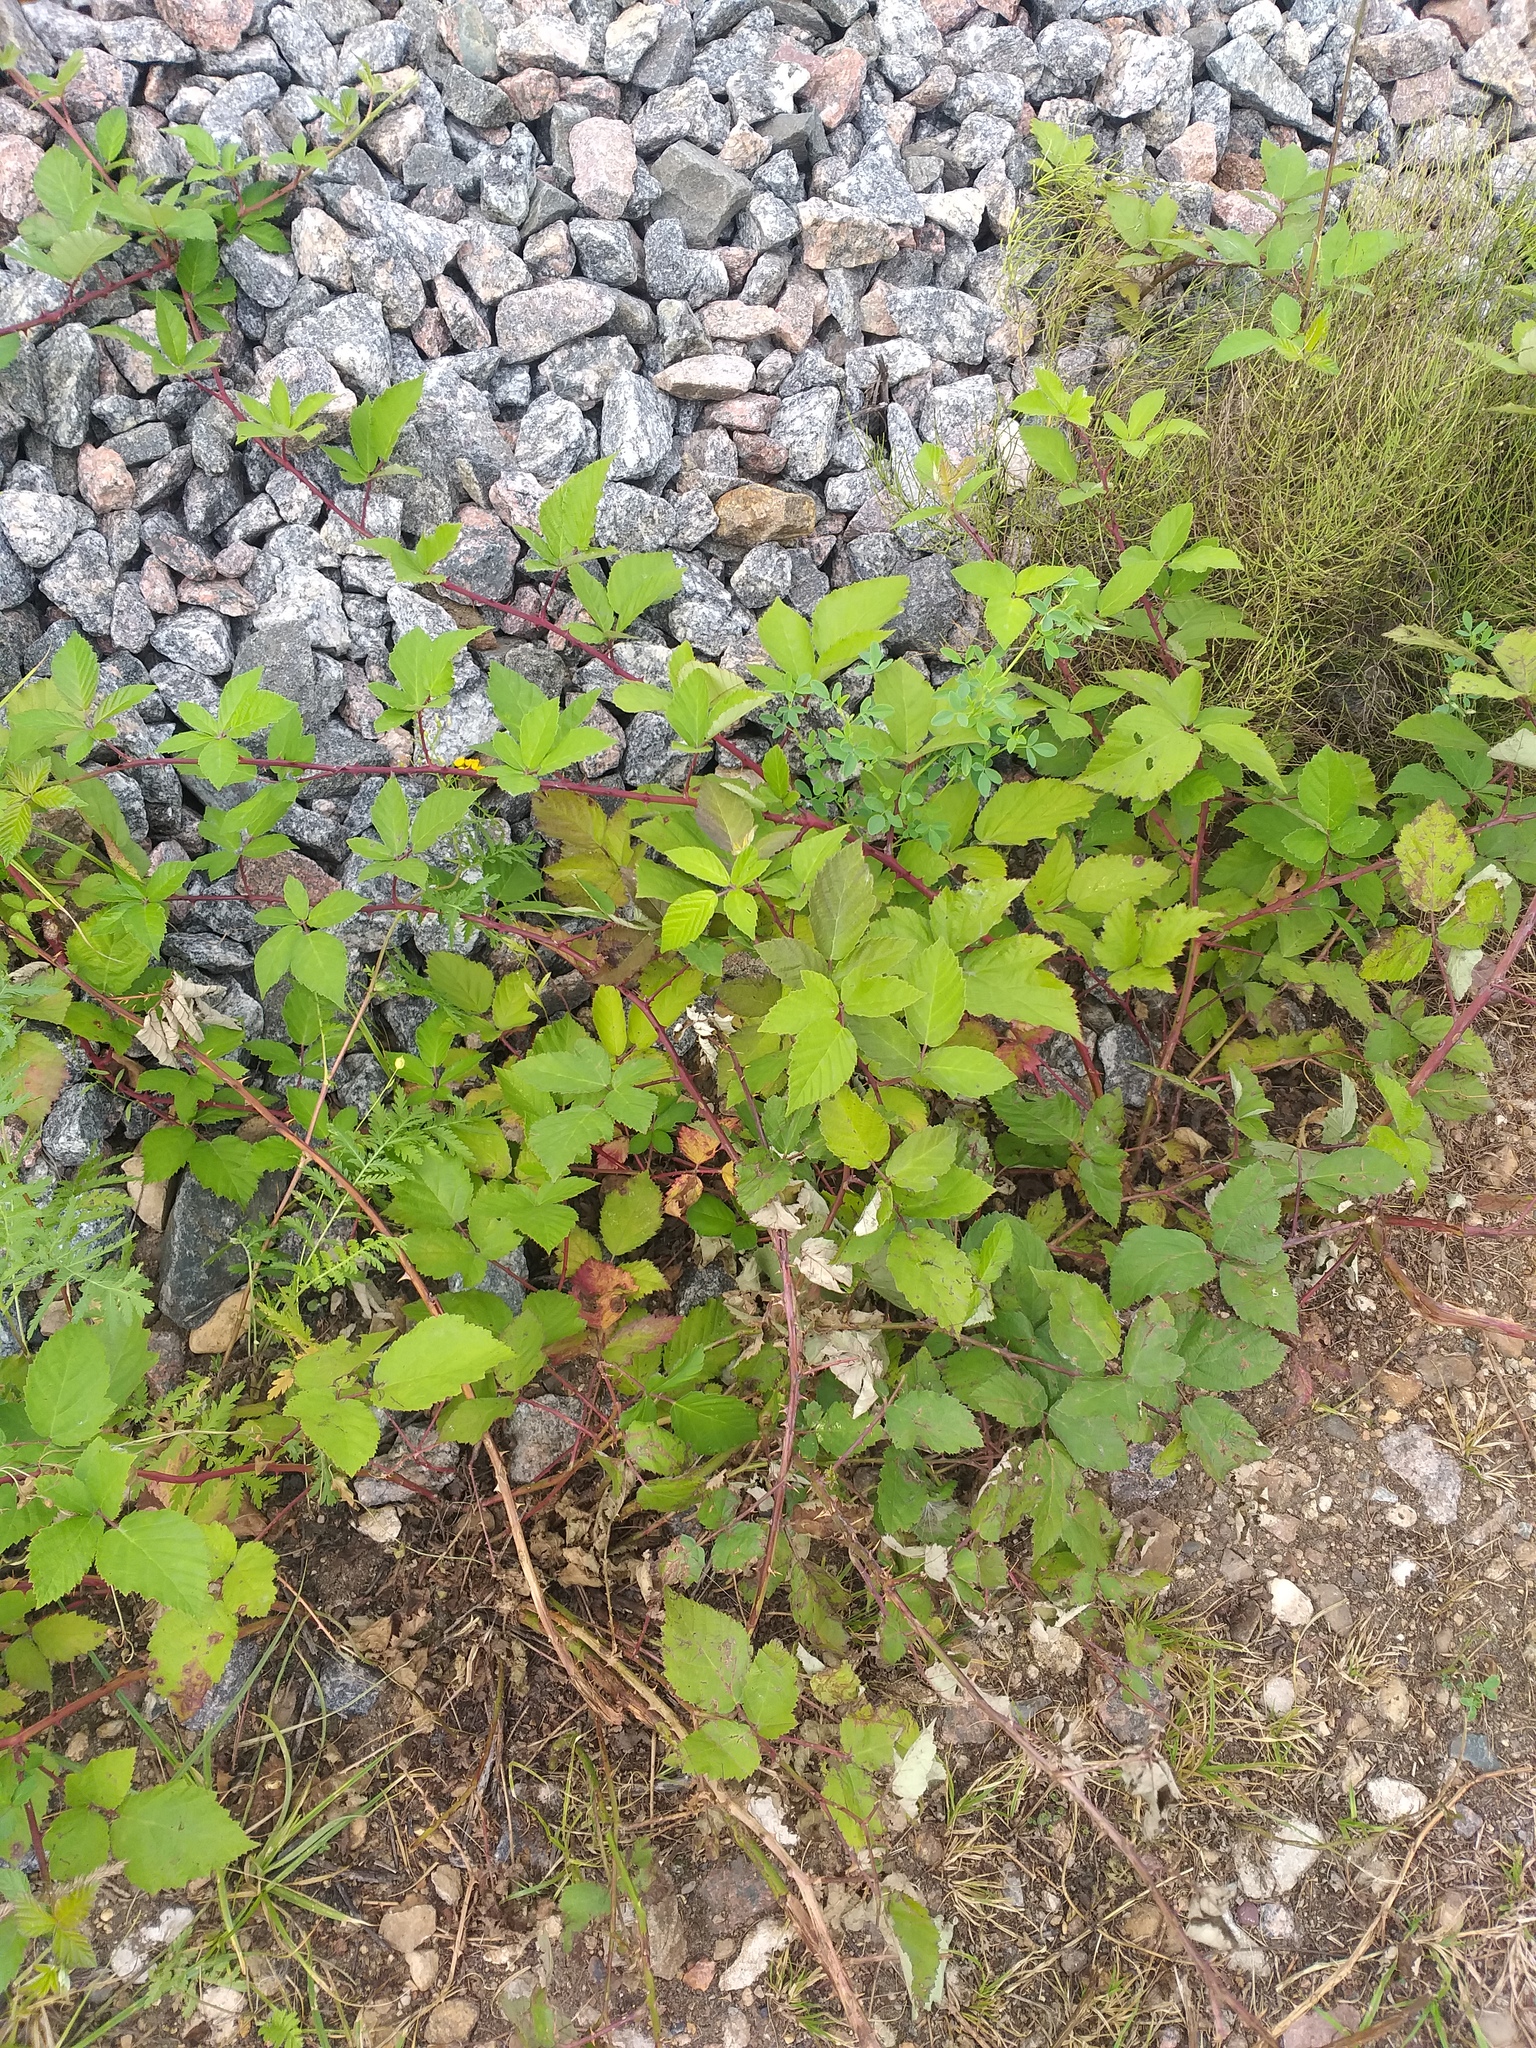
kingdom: Plantae
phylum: Tracheophyta
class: Magnoliopsida
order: Rosales
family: Rosaceae
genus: Rubus
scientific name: Rubus procerus
